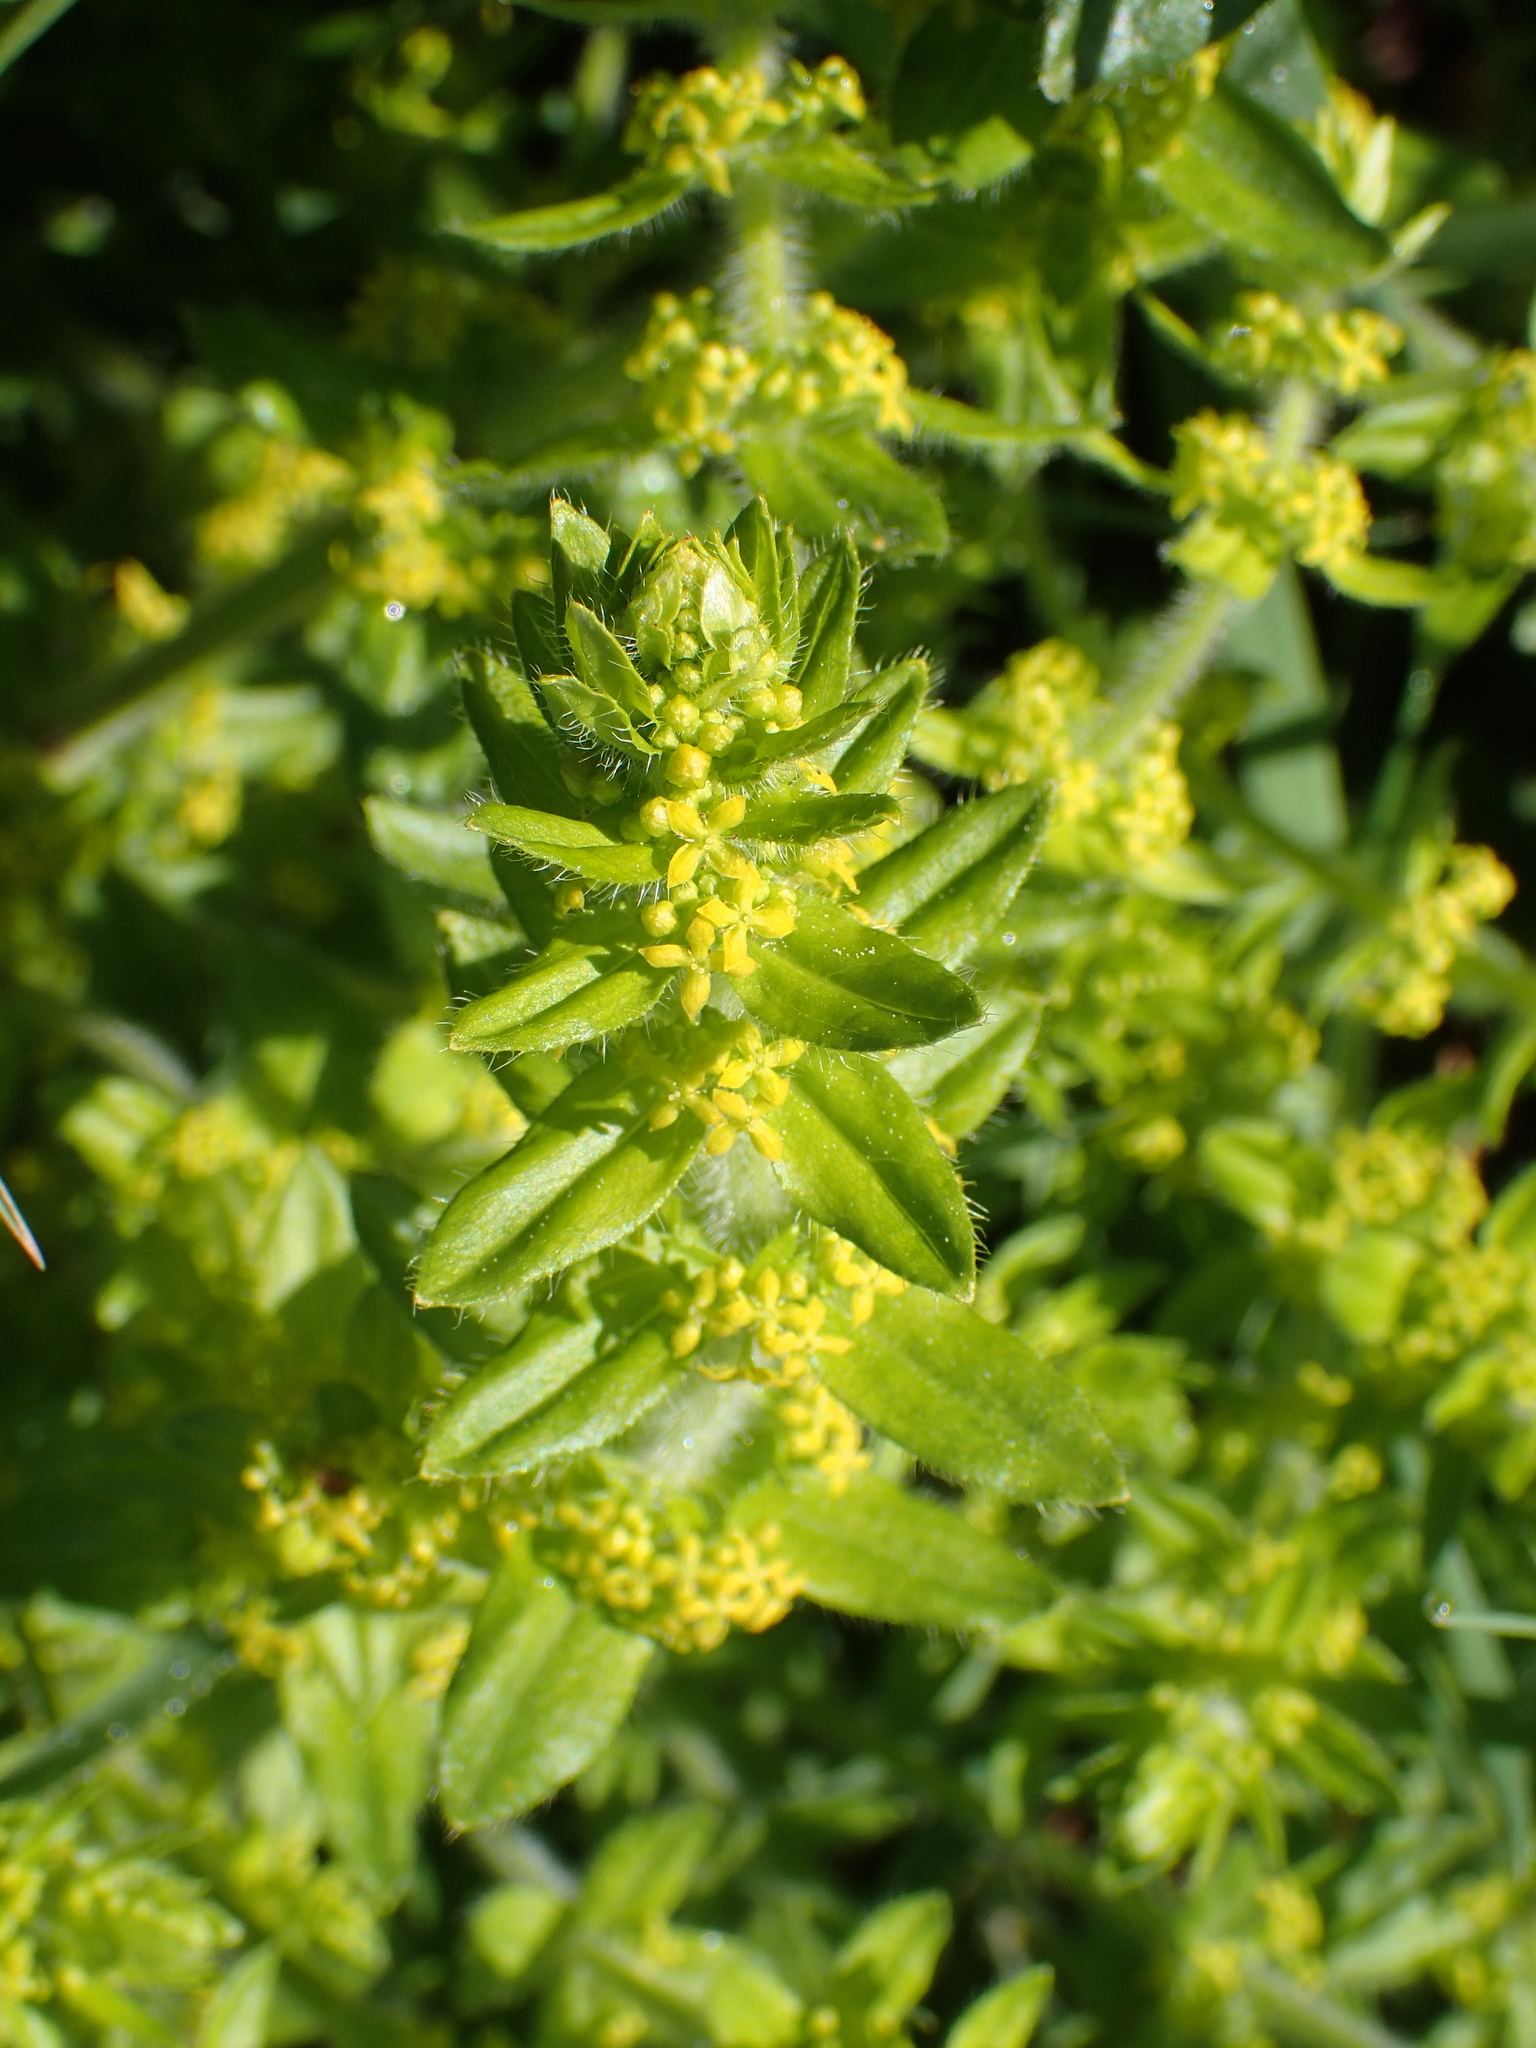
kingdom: Plantae
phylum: Tracheophyta
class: Magnoliopsida
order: Gentianales
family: Rubiaceae
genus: Cruciata
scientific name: Cruciata laevipes
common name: Crosswort
